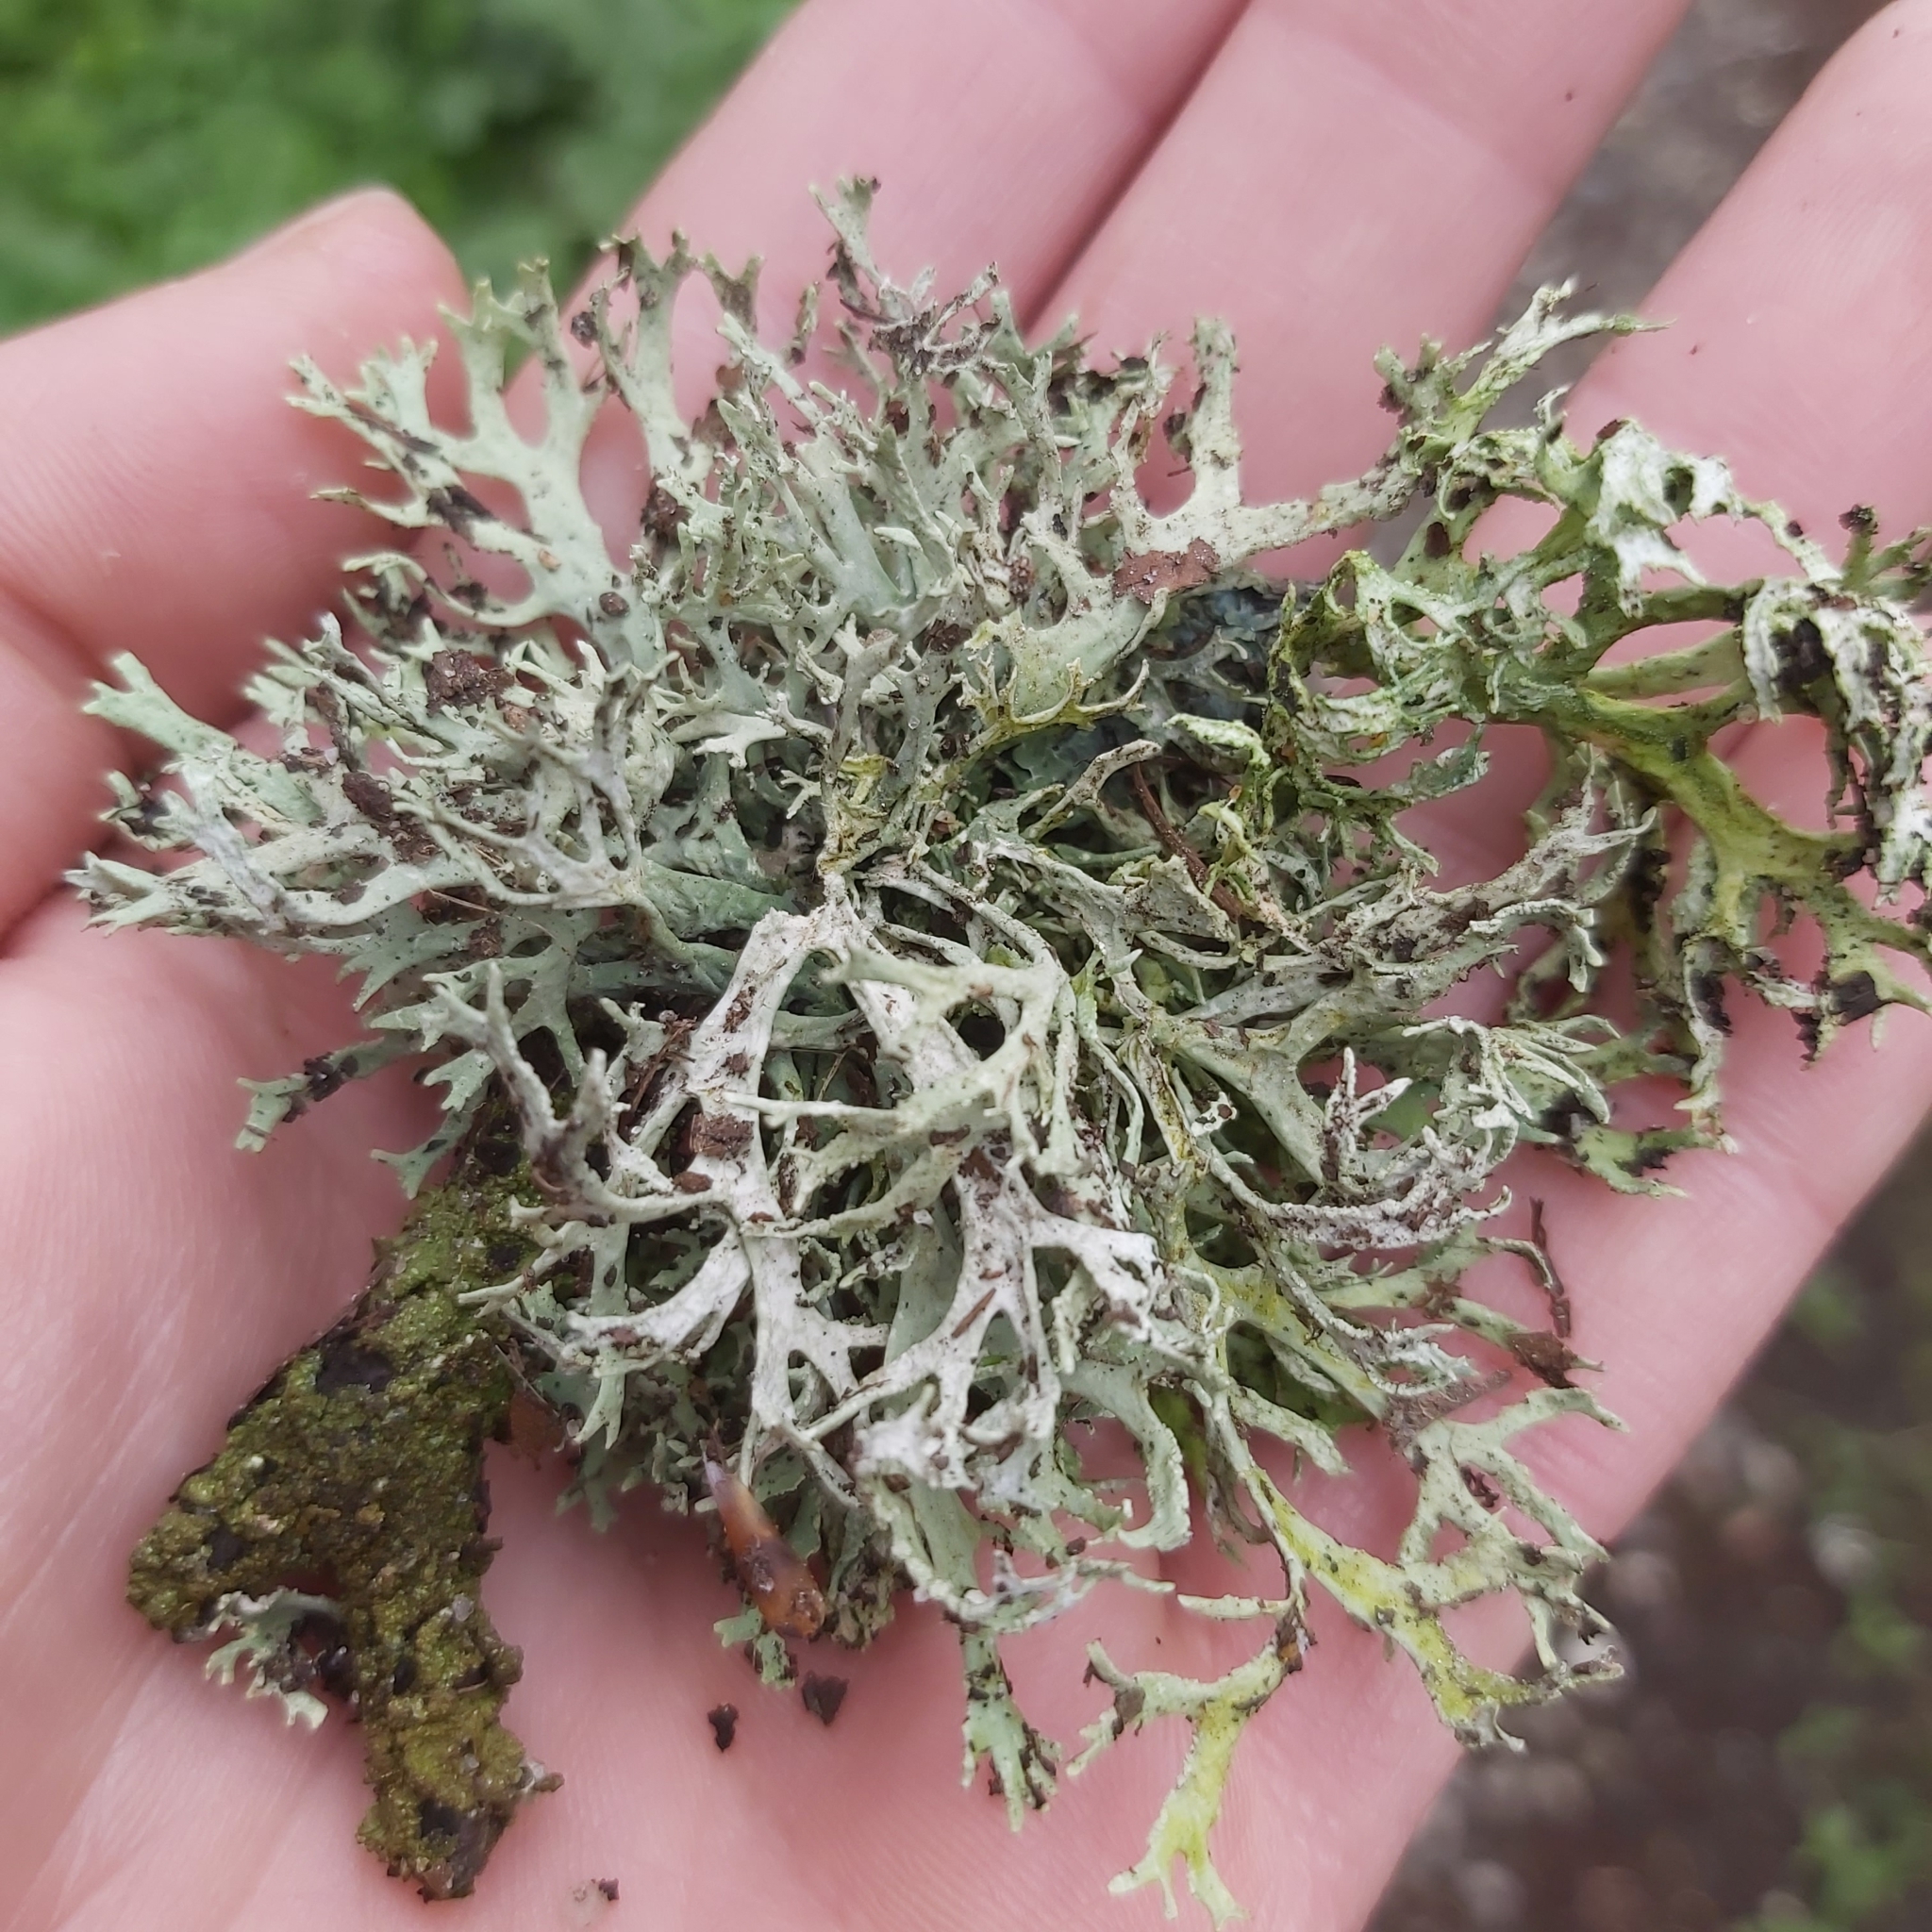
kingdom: Fungi
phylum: Ascomycota
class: Lecanoromycetes
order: Lecanorales
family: Parmeliaceae
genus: Evernia
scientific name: Evernia prunastri
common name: Oak moss
